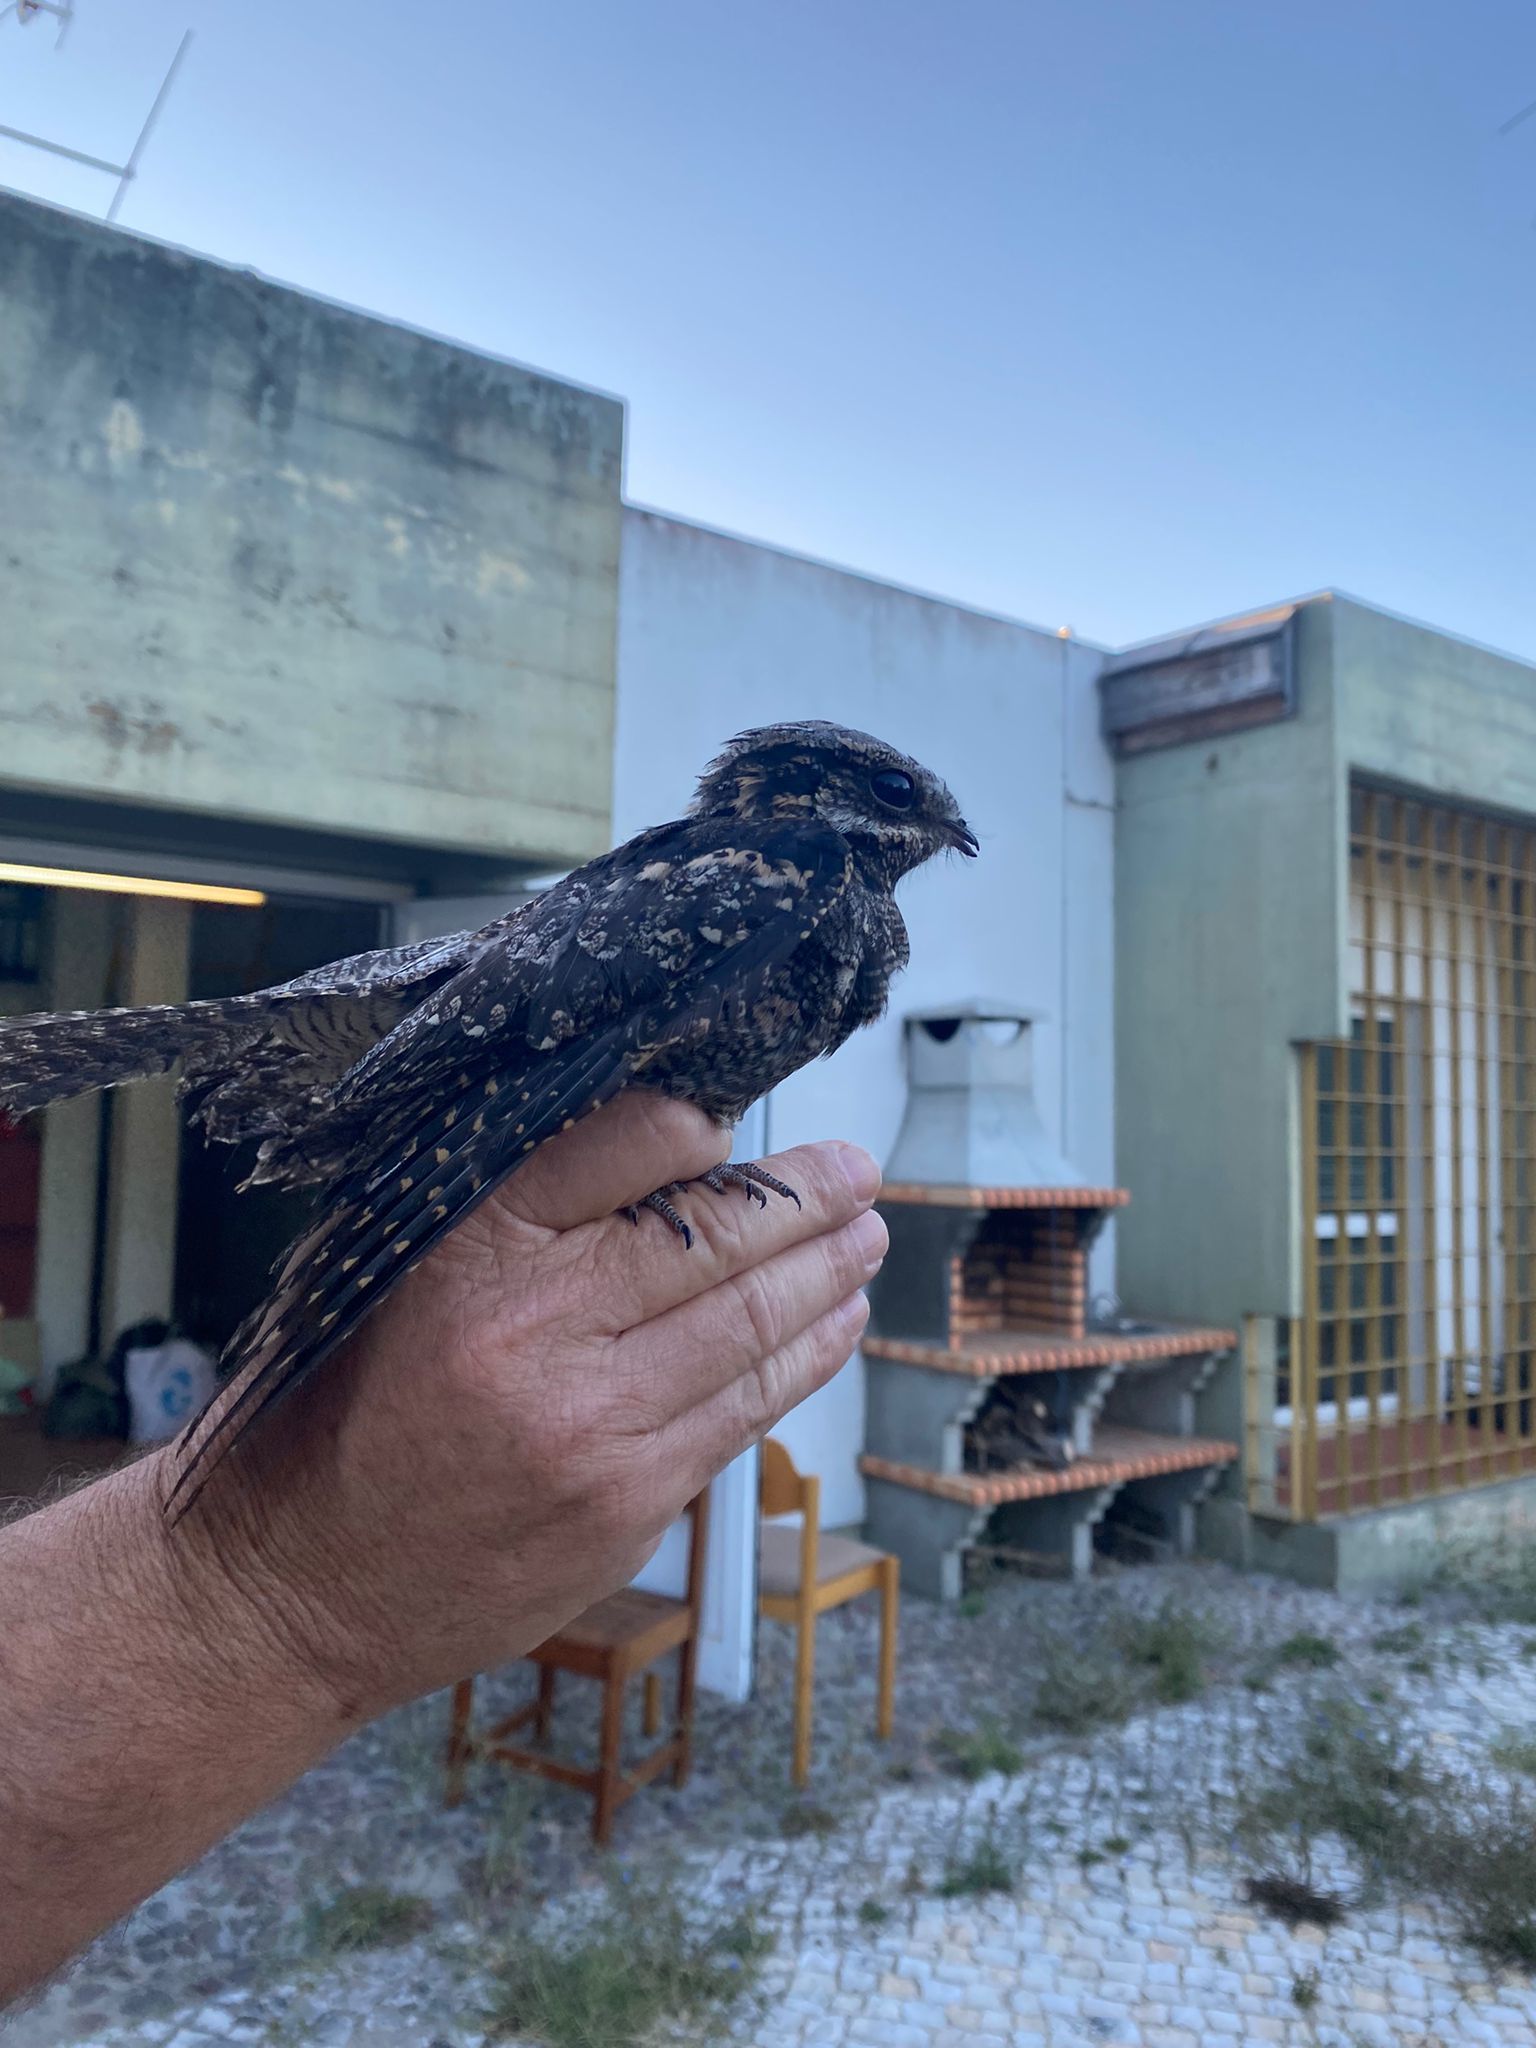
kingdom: Animalia
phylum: Chordata
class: Aves
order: Caprimulgiformes
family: Caprimulgidae
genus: Caprimulgus
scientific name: Caprimulgus europaeus
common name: European nightjar
